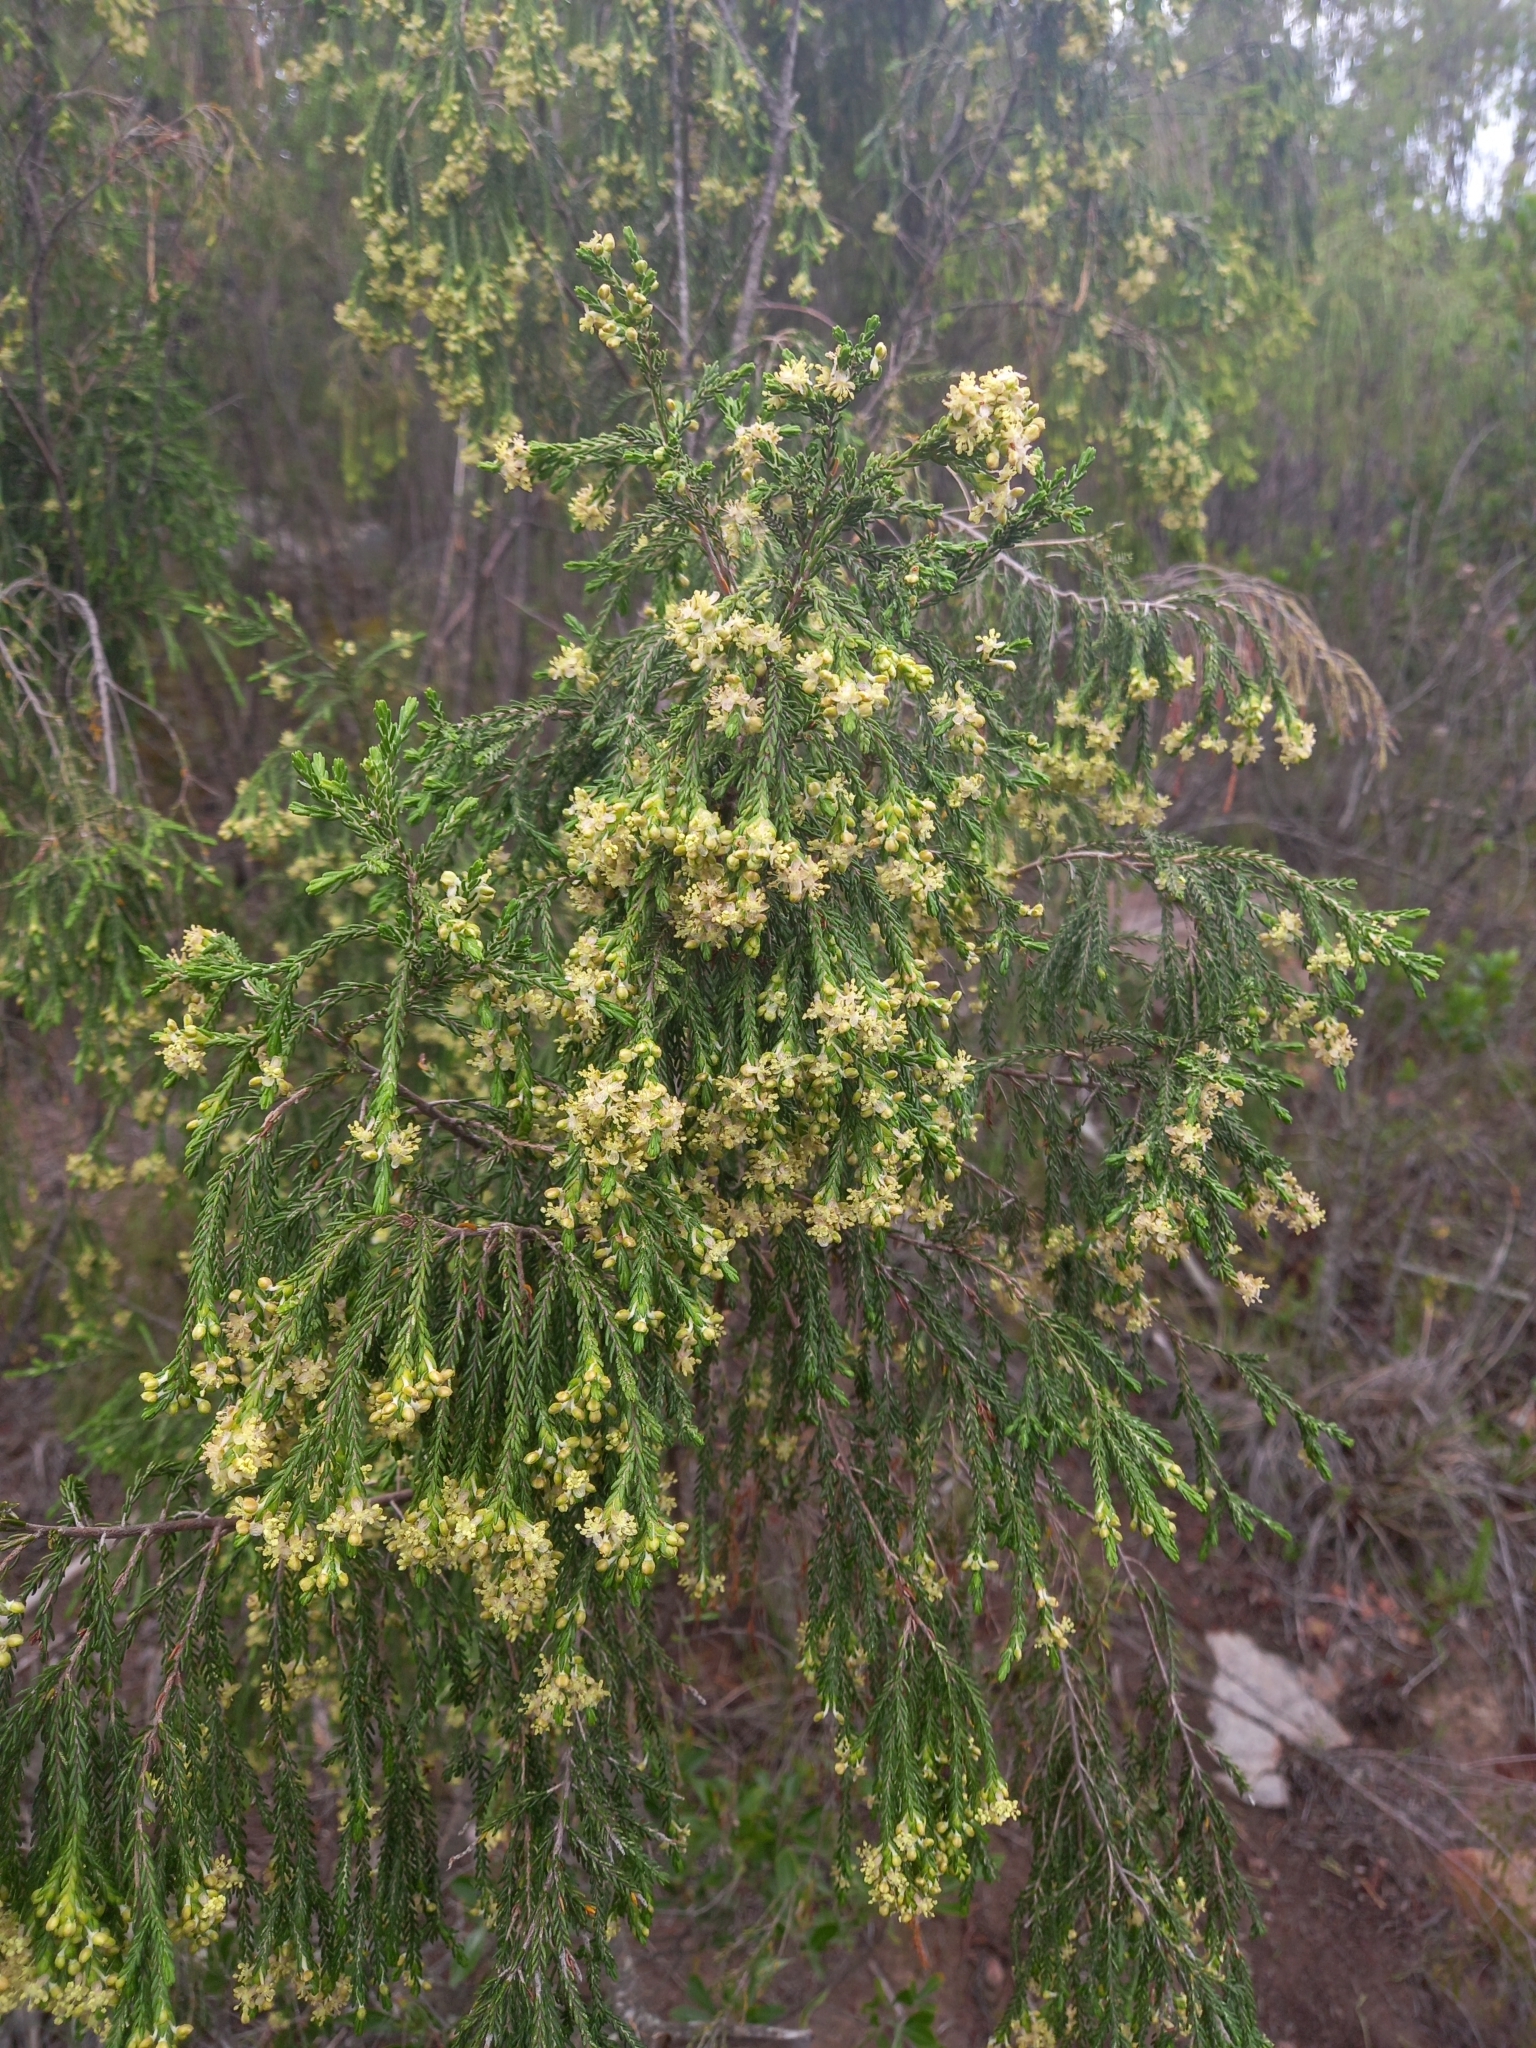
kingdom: Plantae
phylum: Tracheophyta
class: Magnoliopsida
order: Malvales
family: Thymelaeaceae
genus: Passerina
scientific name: Passerina pendula
